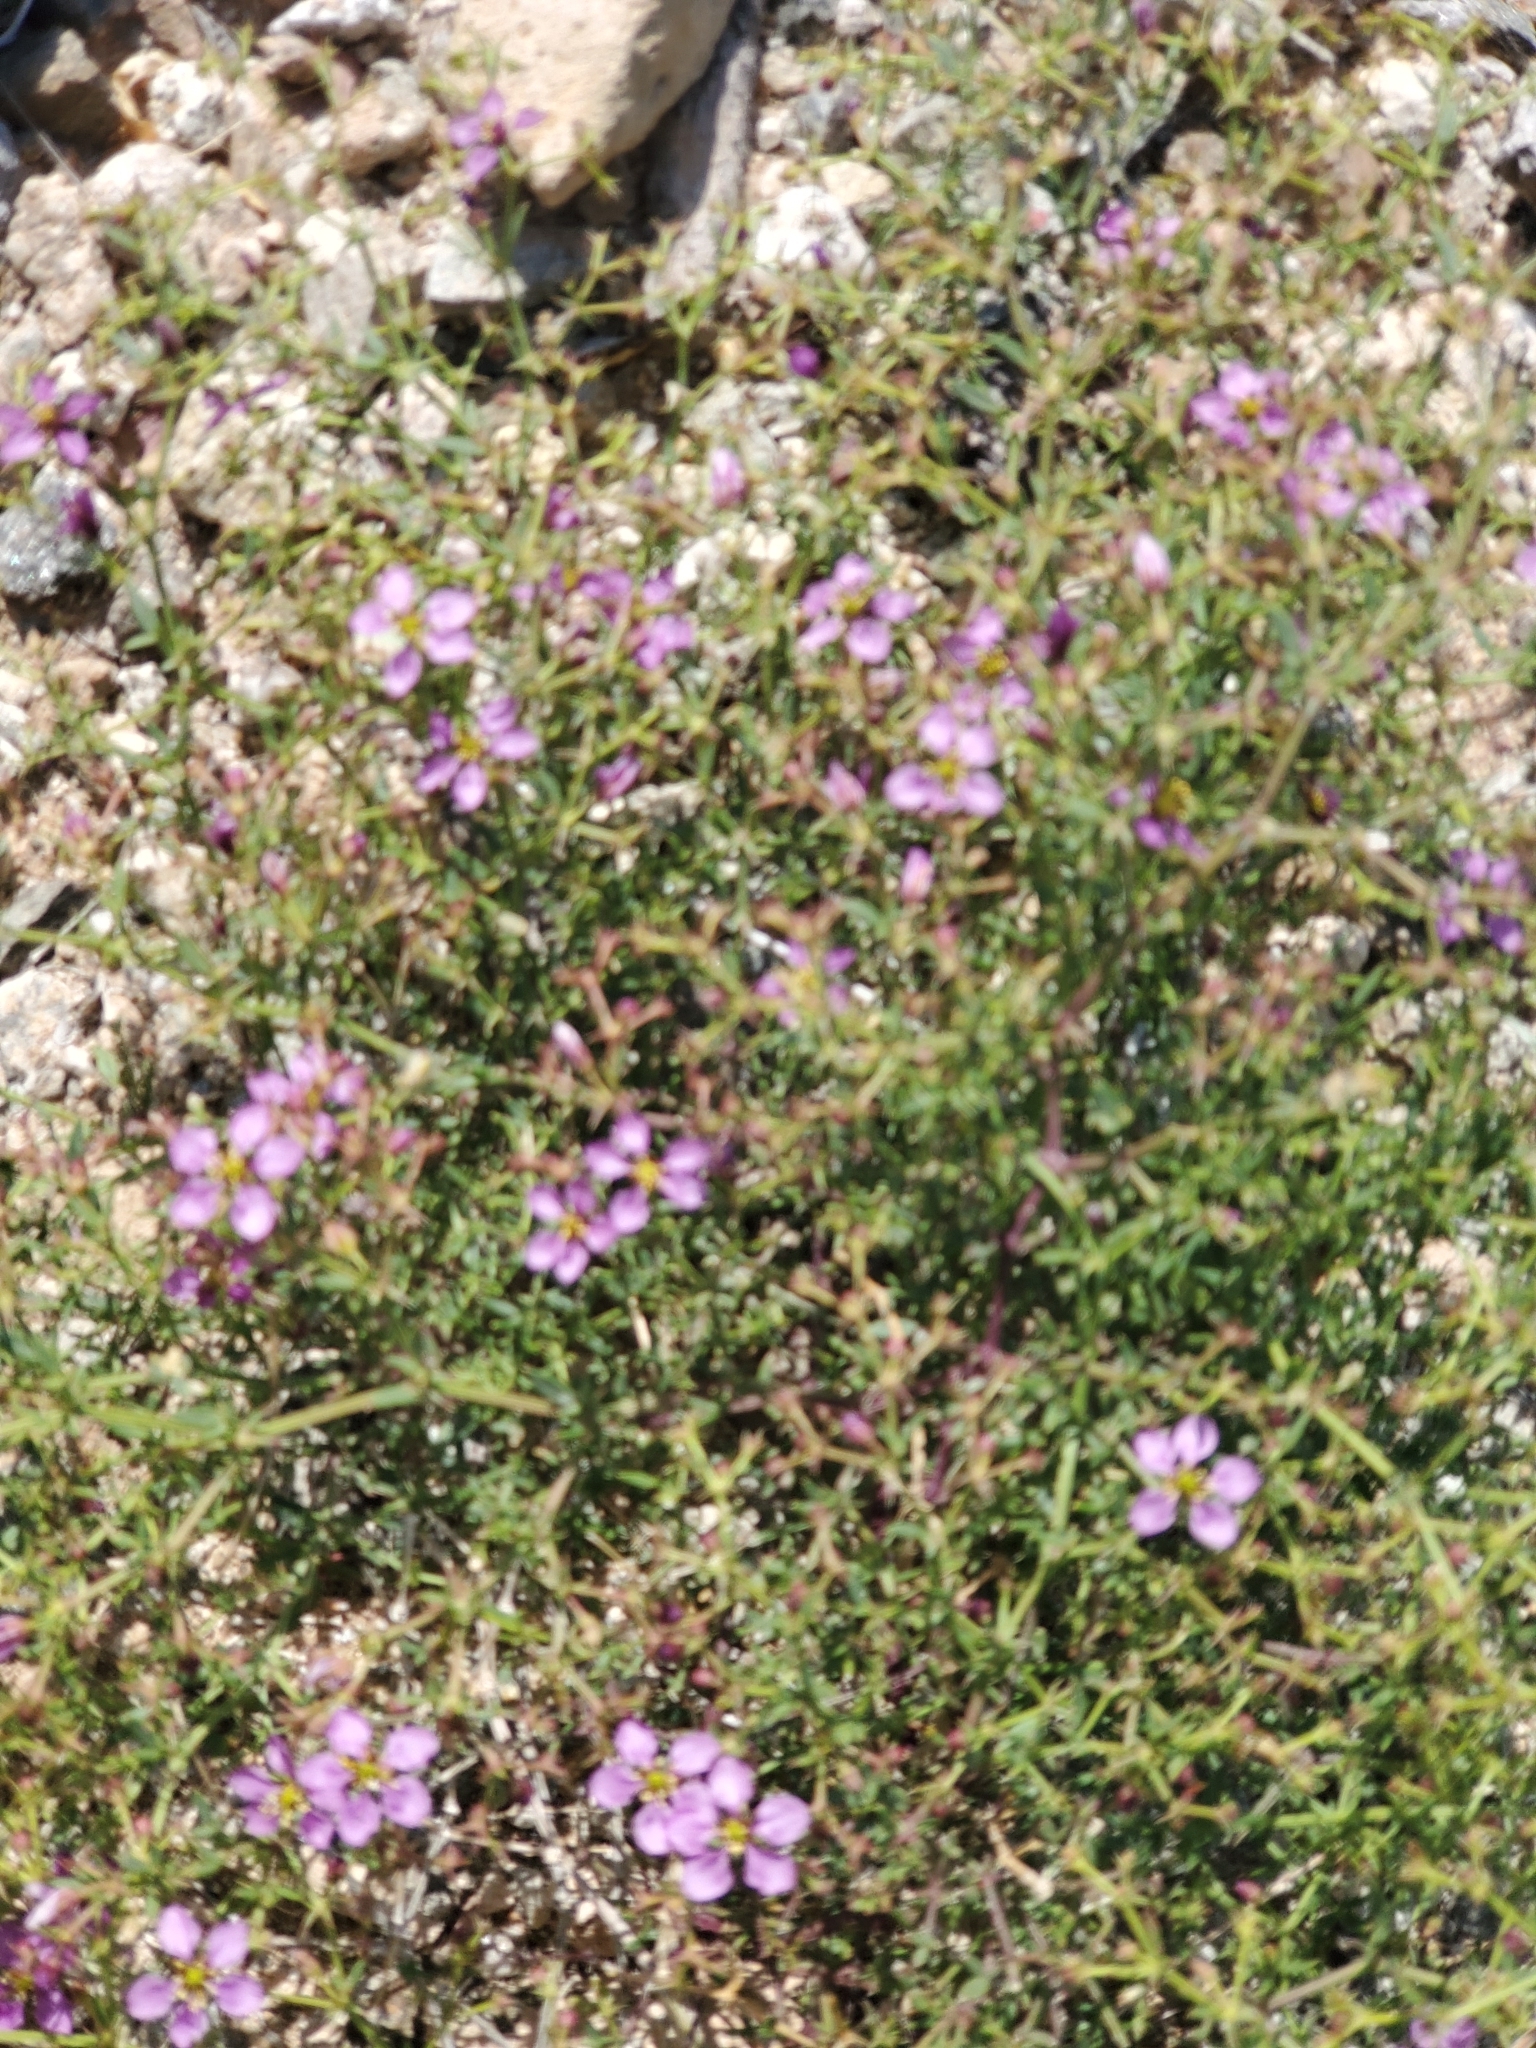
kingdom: Plantae
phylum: Tracheophyta
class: Magnoliopsida
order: Zygophyllales
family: Zygophyllaceae
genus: Fagonia
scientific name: Fagonia laevis
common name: California fagonbush
